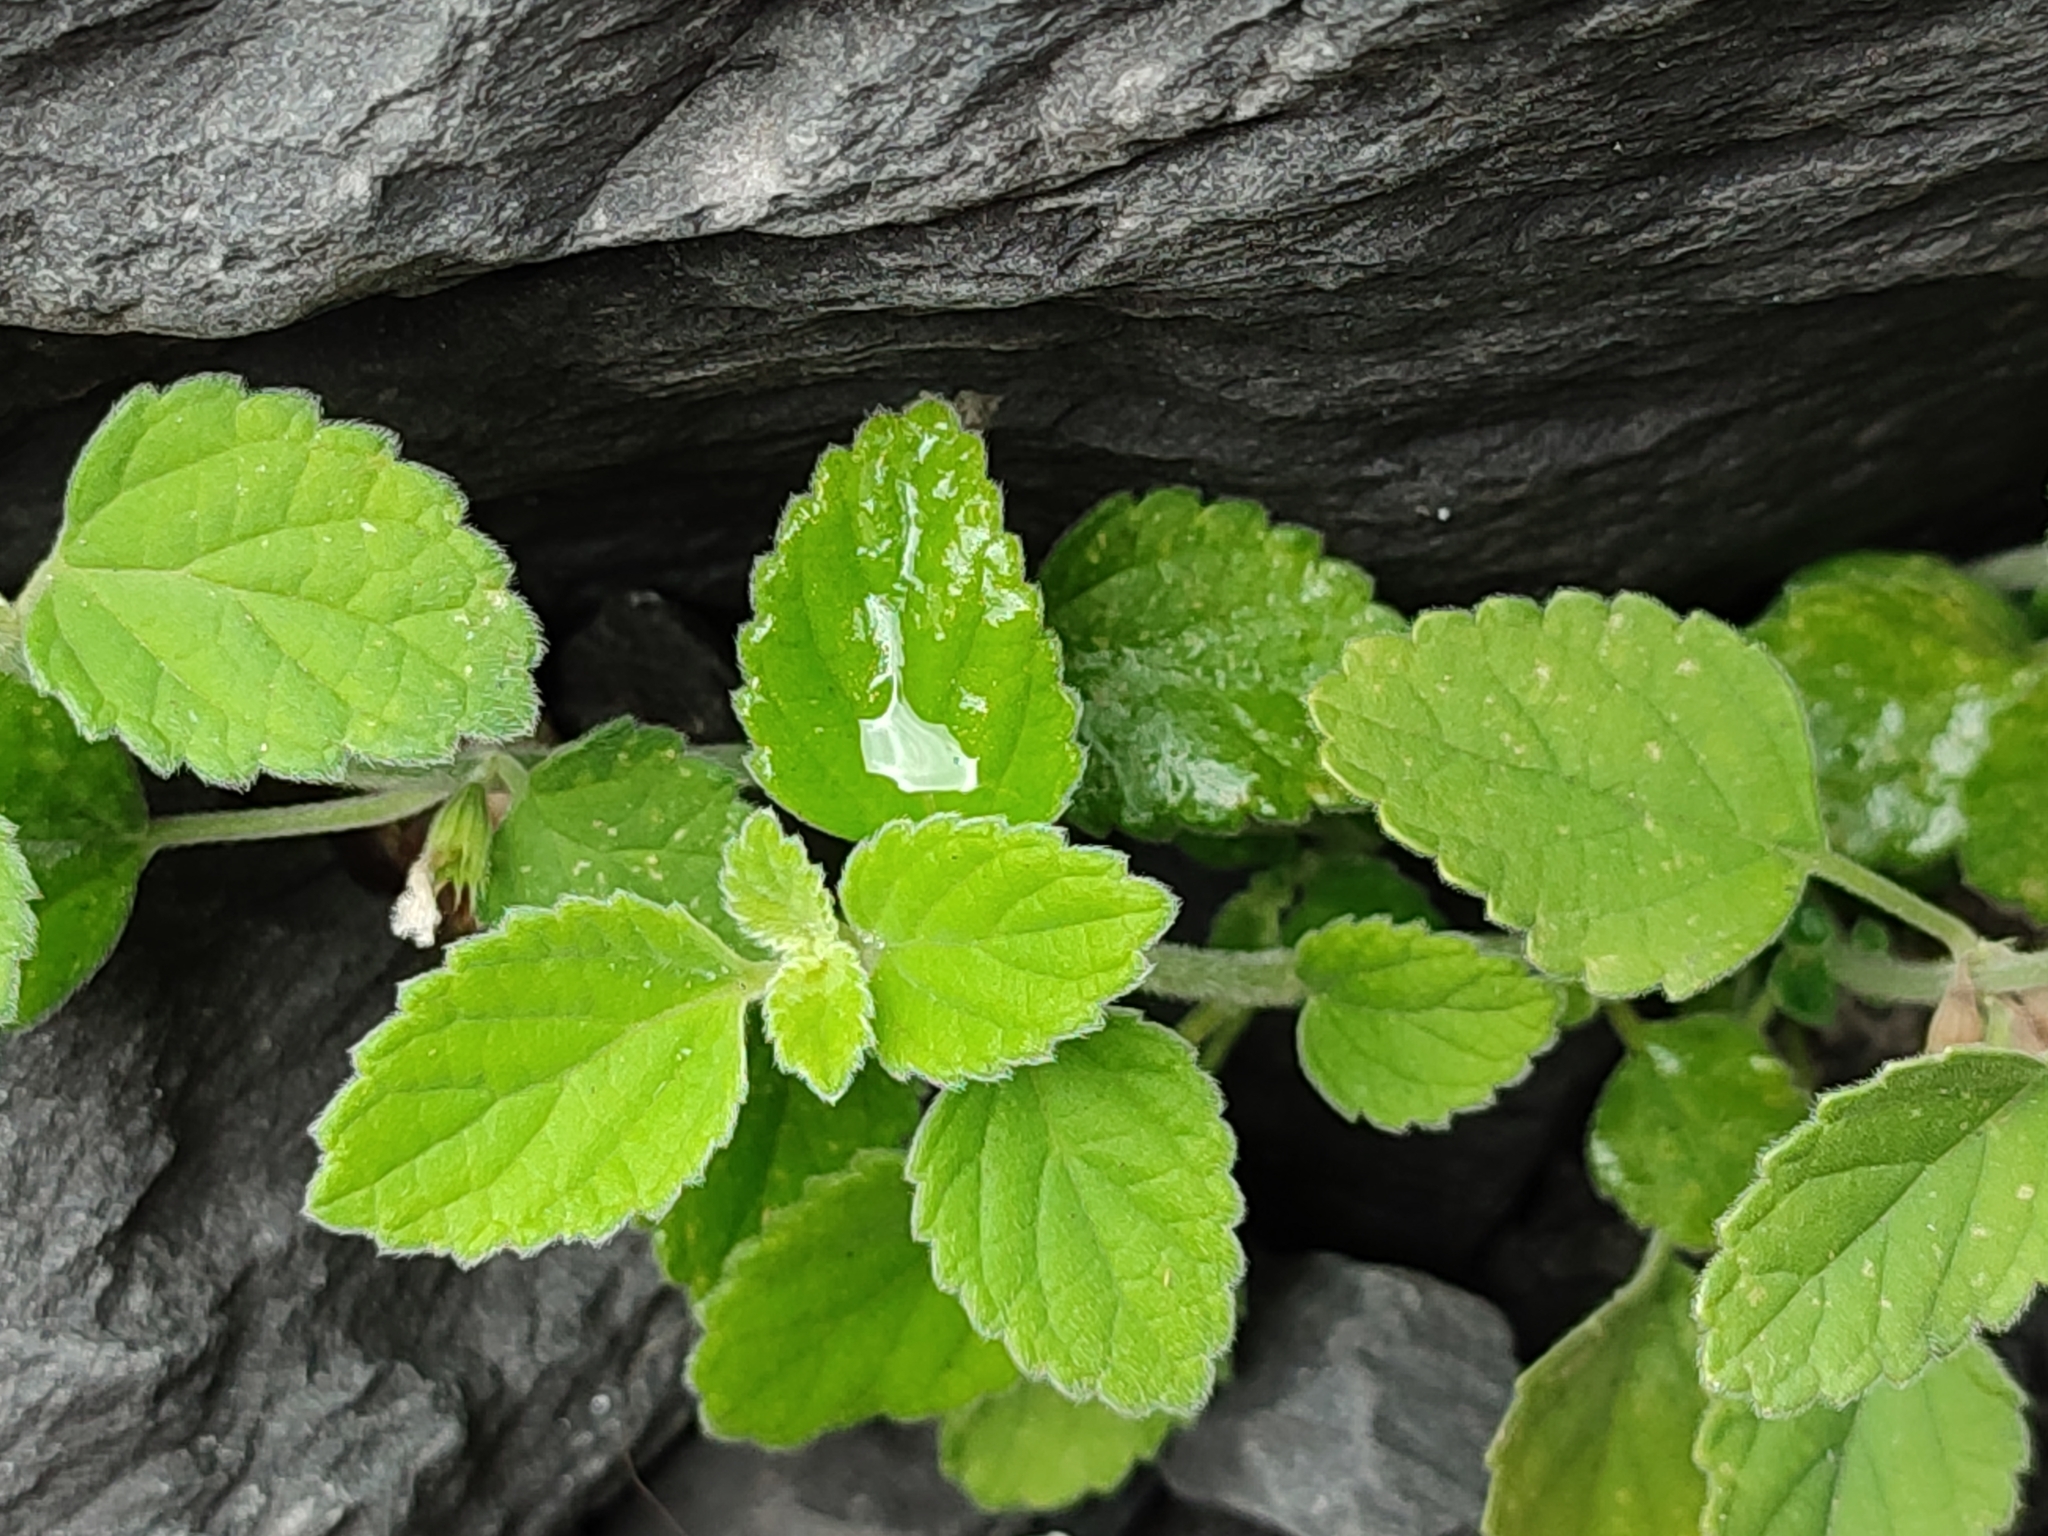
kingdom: Plantae
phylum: Tracheophyta
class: Magnoliopsida
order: Lamiales
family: Lamiaceae
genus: Leucas
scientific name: Leucas chinensis
